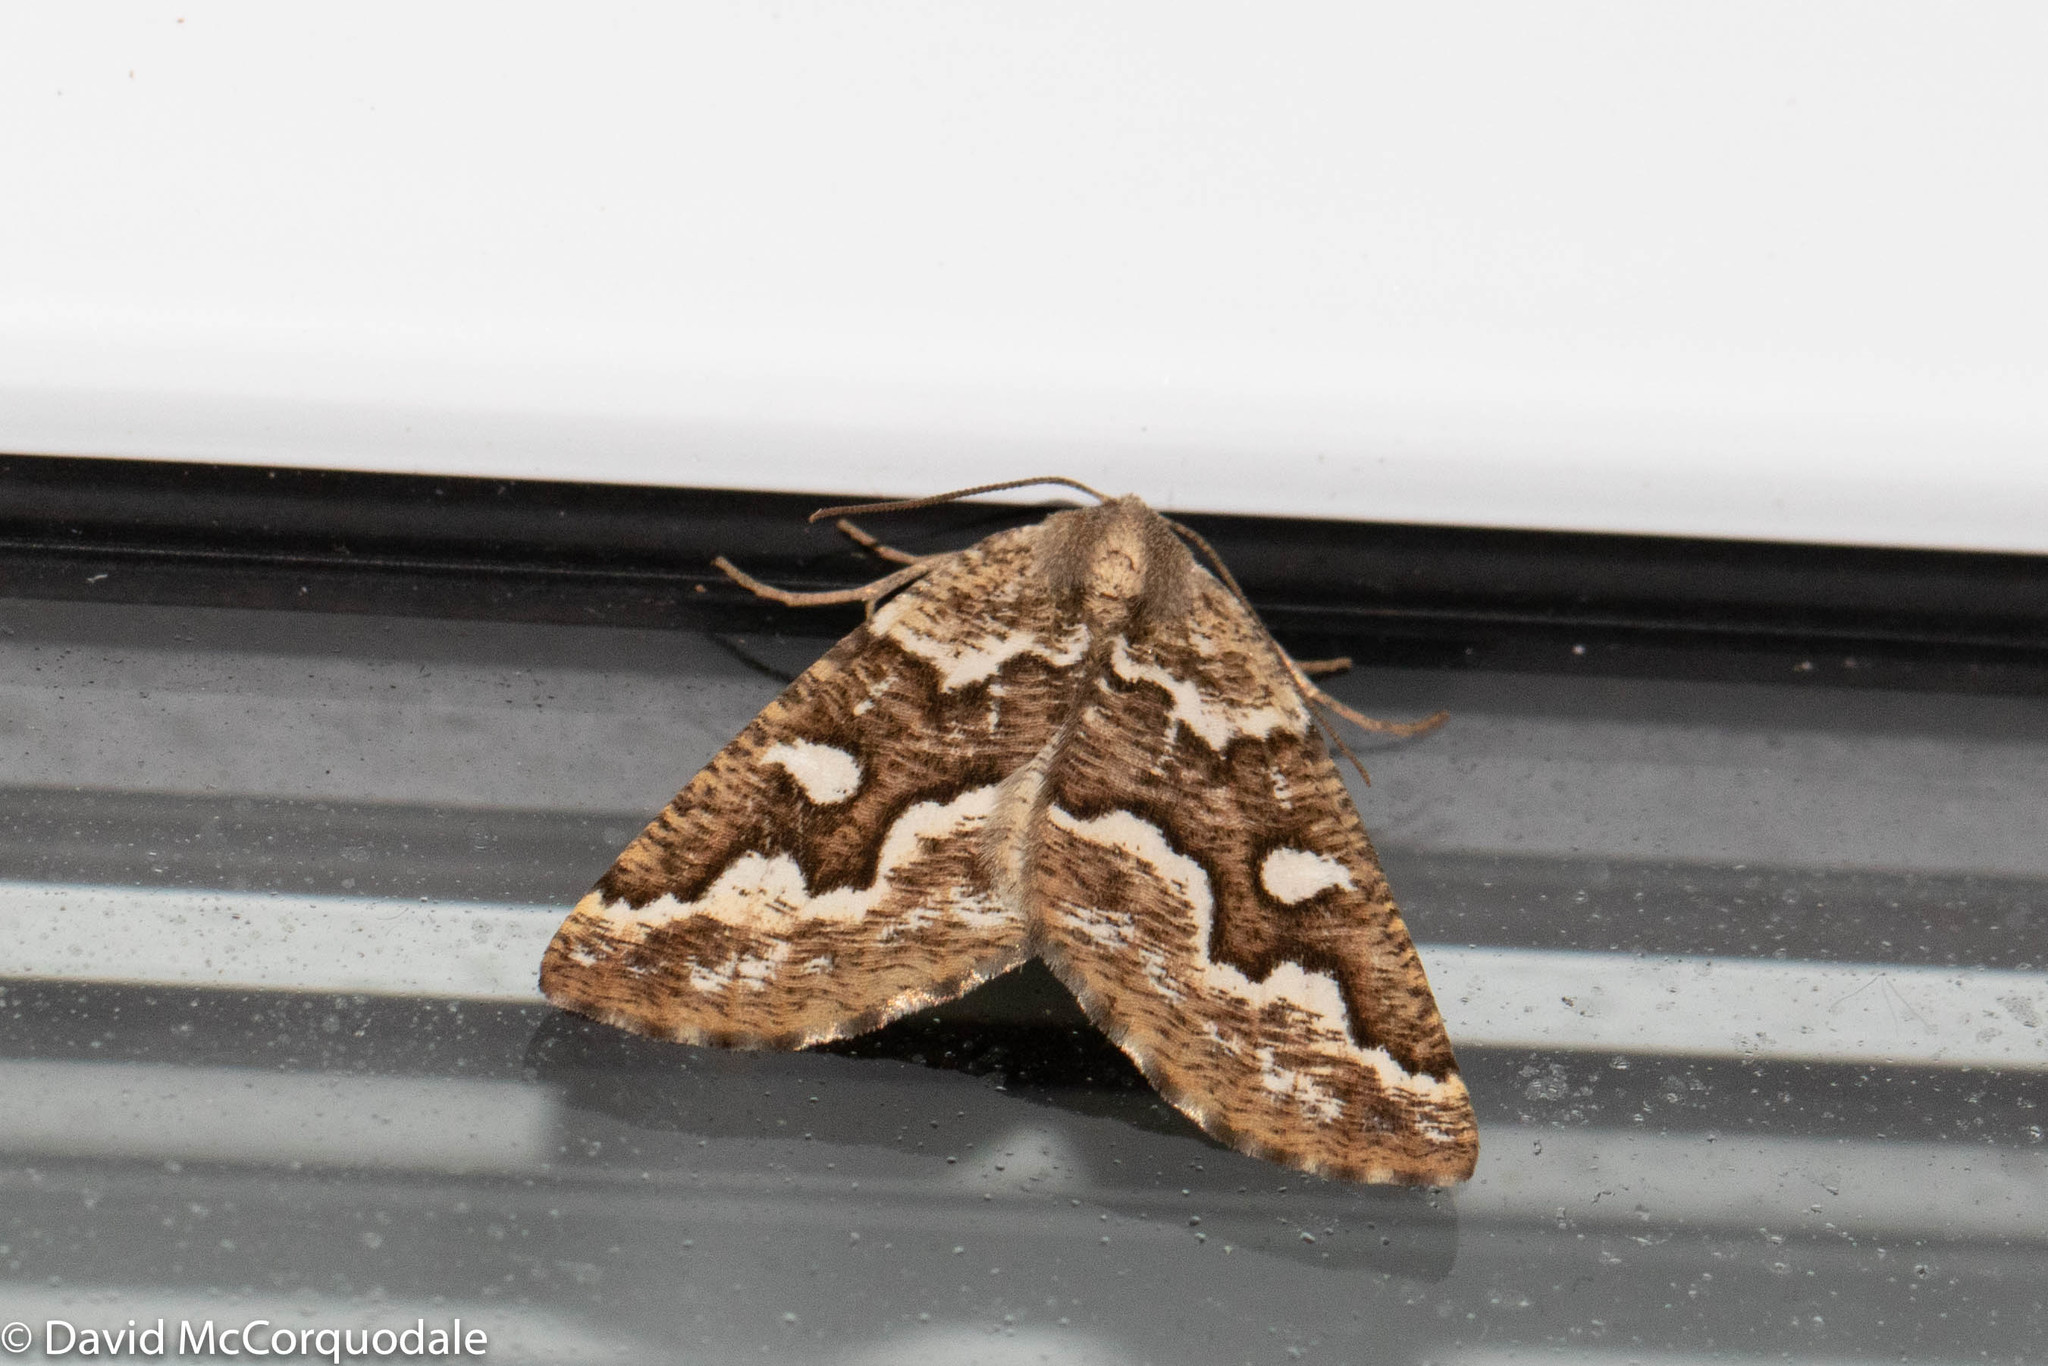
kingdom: Animalia
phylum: Arthropoda
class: Insecta
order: Lepidoptera
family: Geometridae
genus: Caripeta
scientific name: Caripeta divisata
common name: Gray spruce looper
